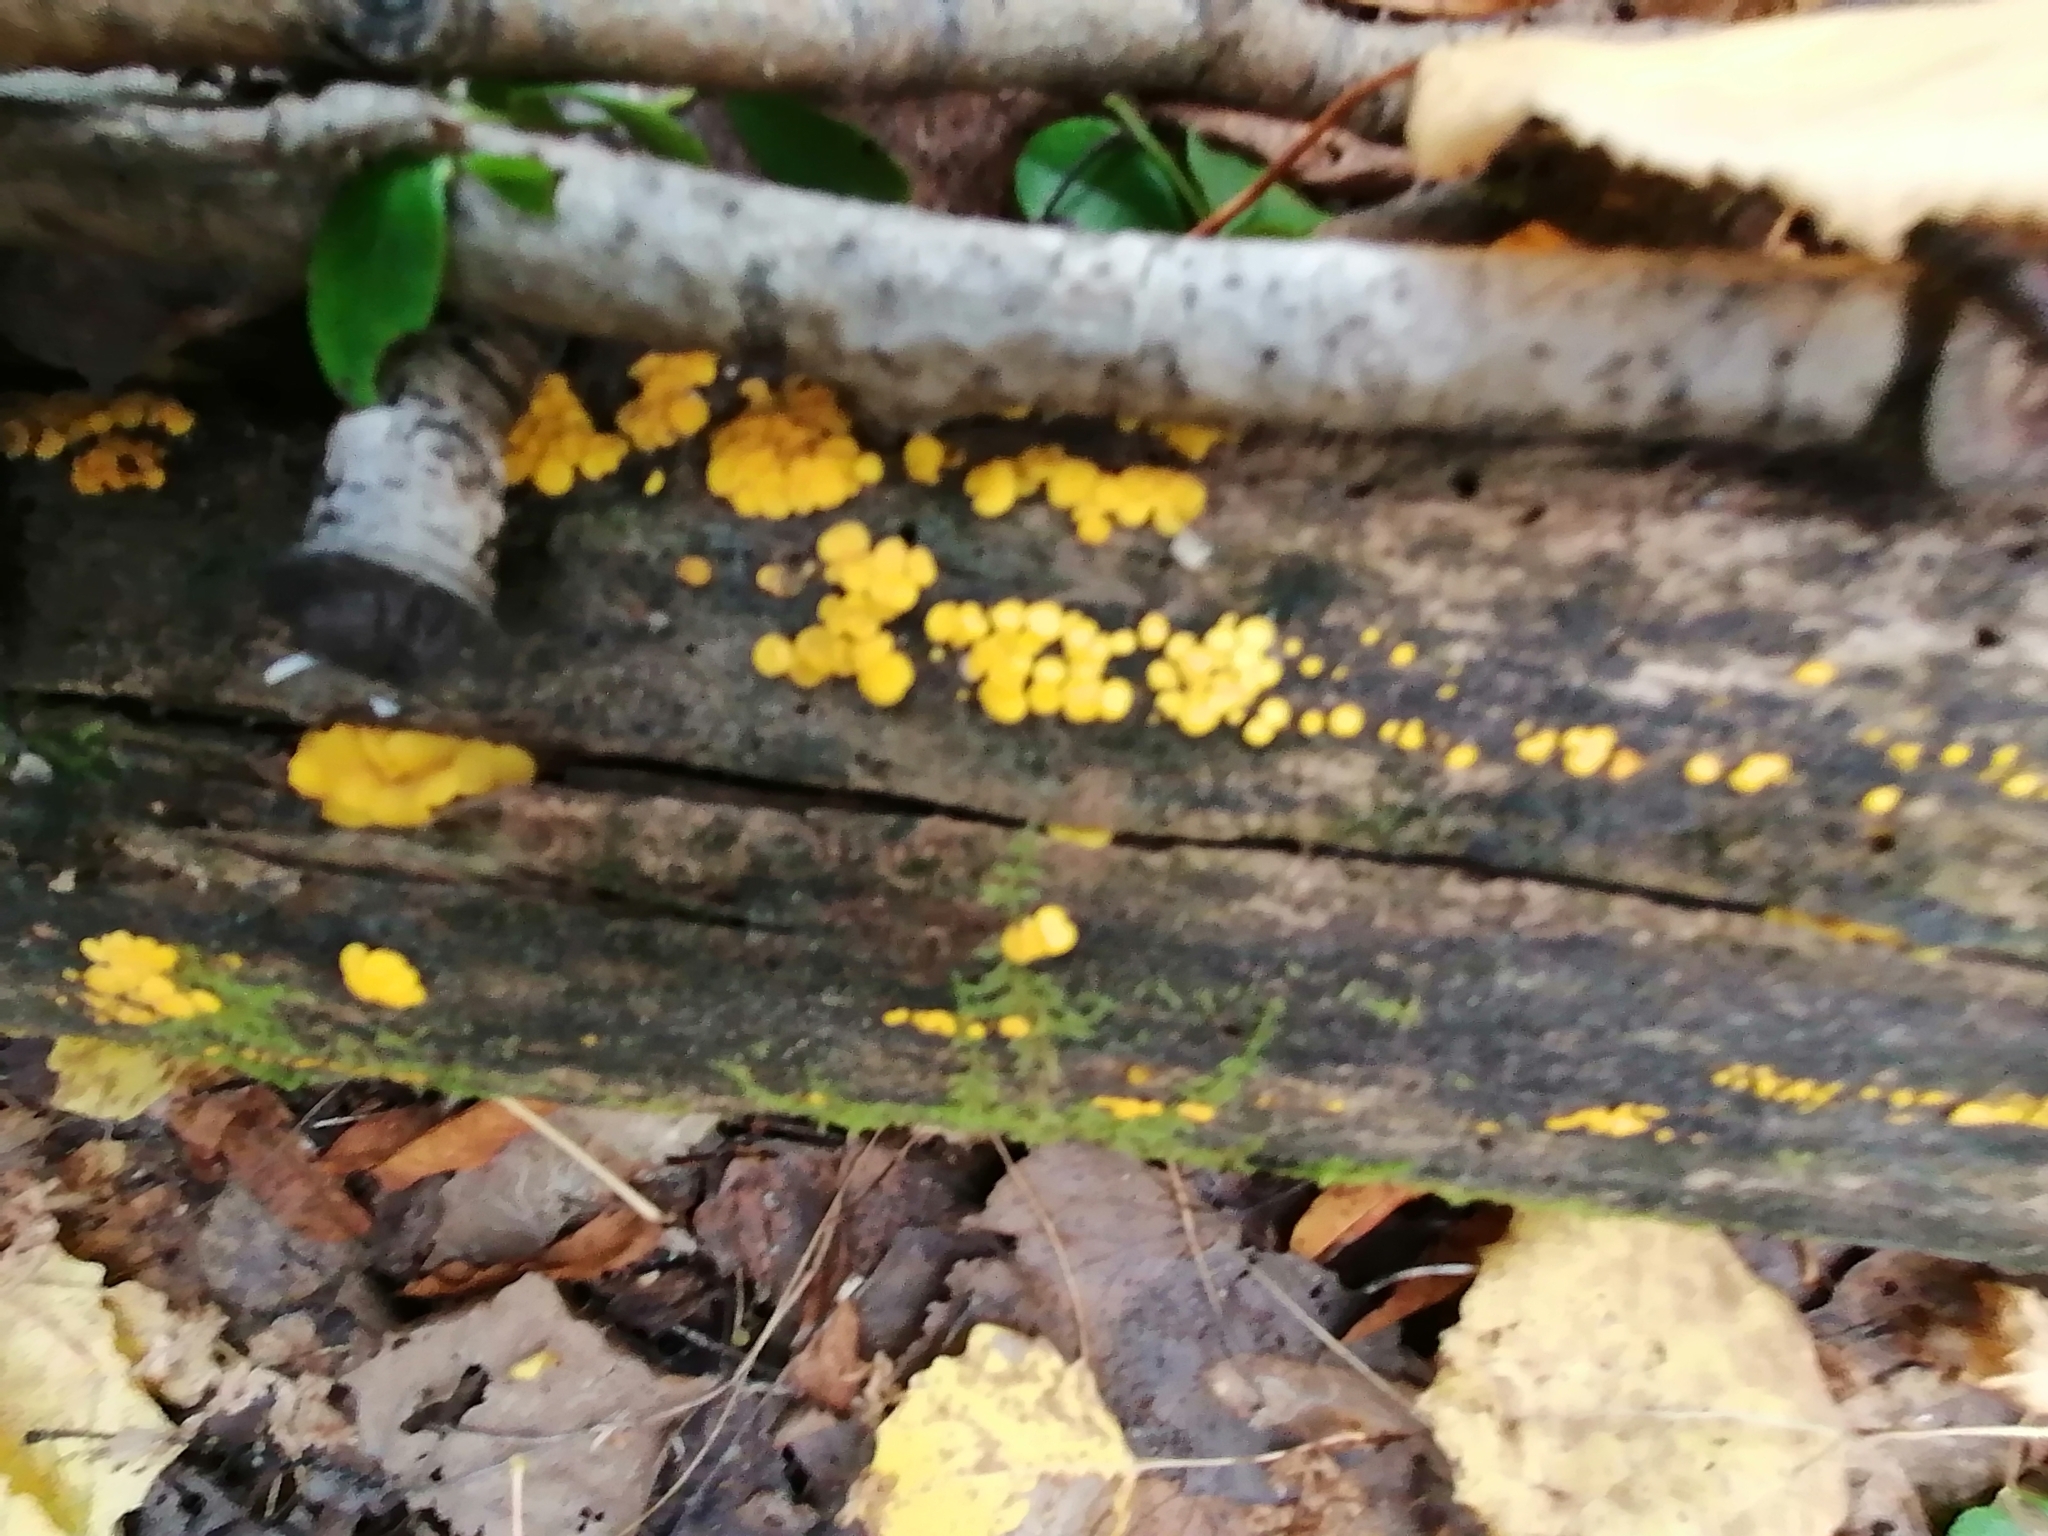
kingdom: Fungi
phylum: Ascomycota
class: Leotiomycetes
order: Helotiales
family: Pezizellaceae
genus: Calycina
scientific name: Calycina citrina
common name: Yellow fairy cups
